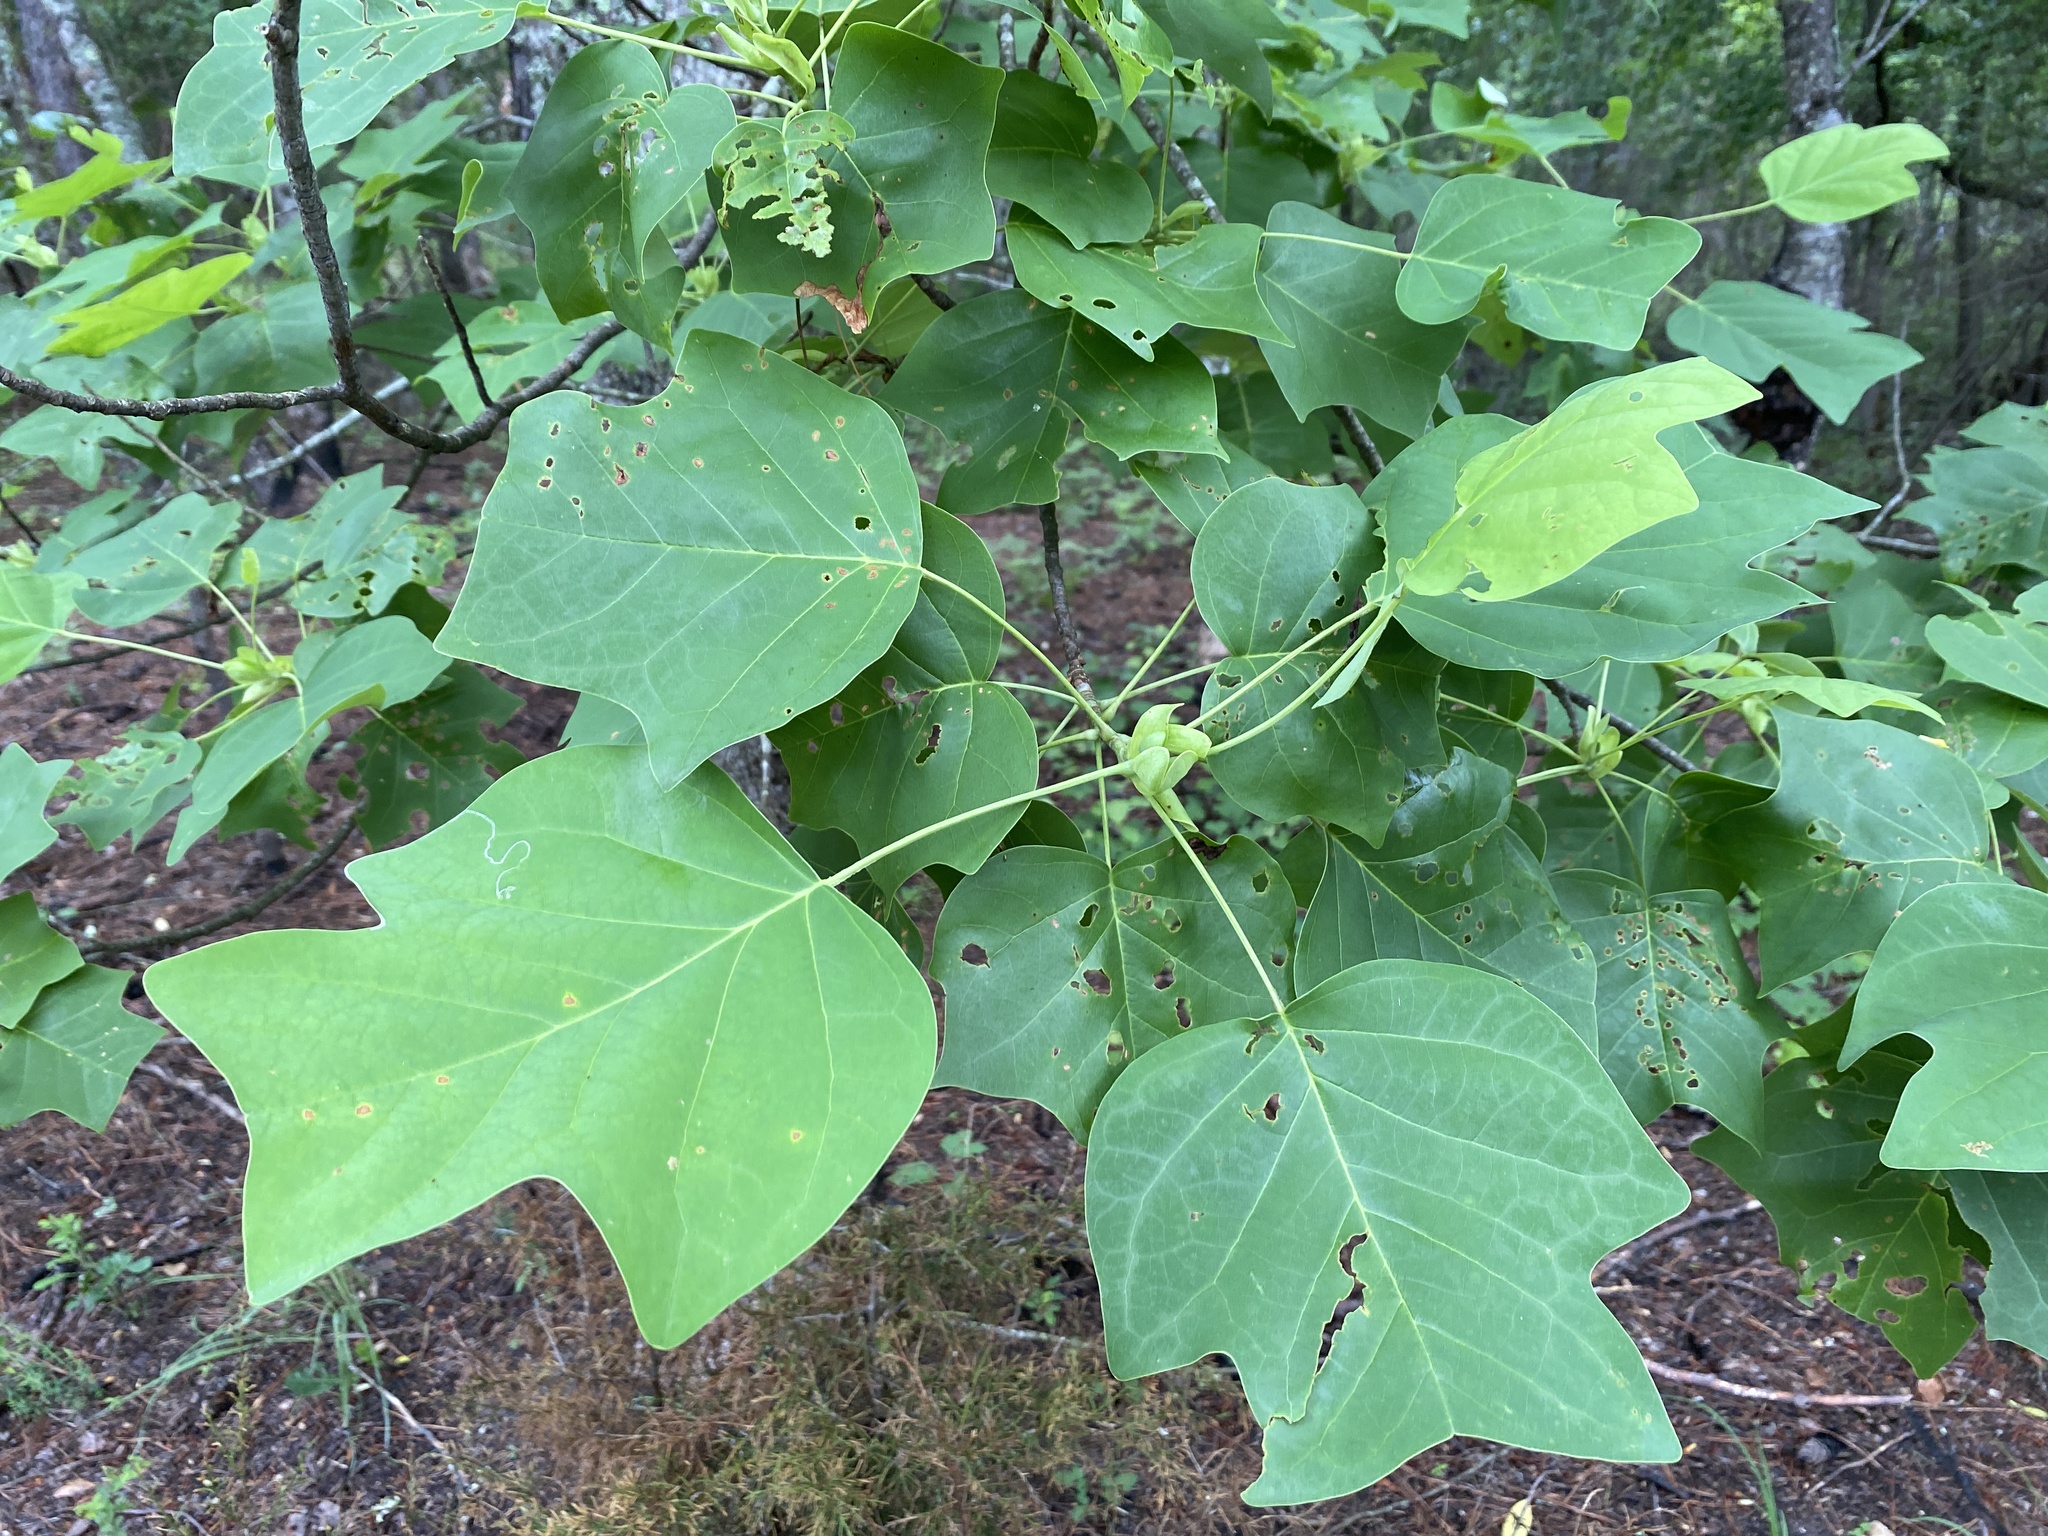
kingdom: Plantae
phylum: Tracheophyta
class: Magnoliopsida
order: Magnoliales
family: Magnoliaceae
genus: Liriodendron
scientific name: Liriodendron tulipifera
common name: Tulip tree
